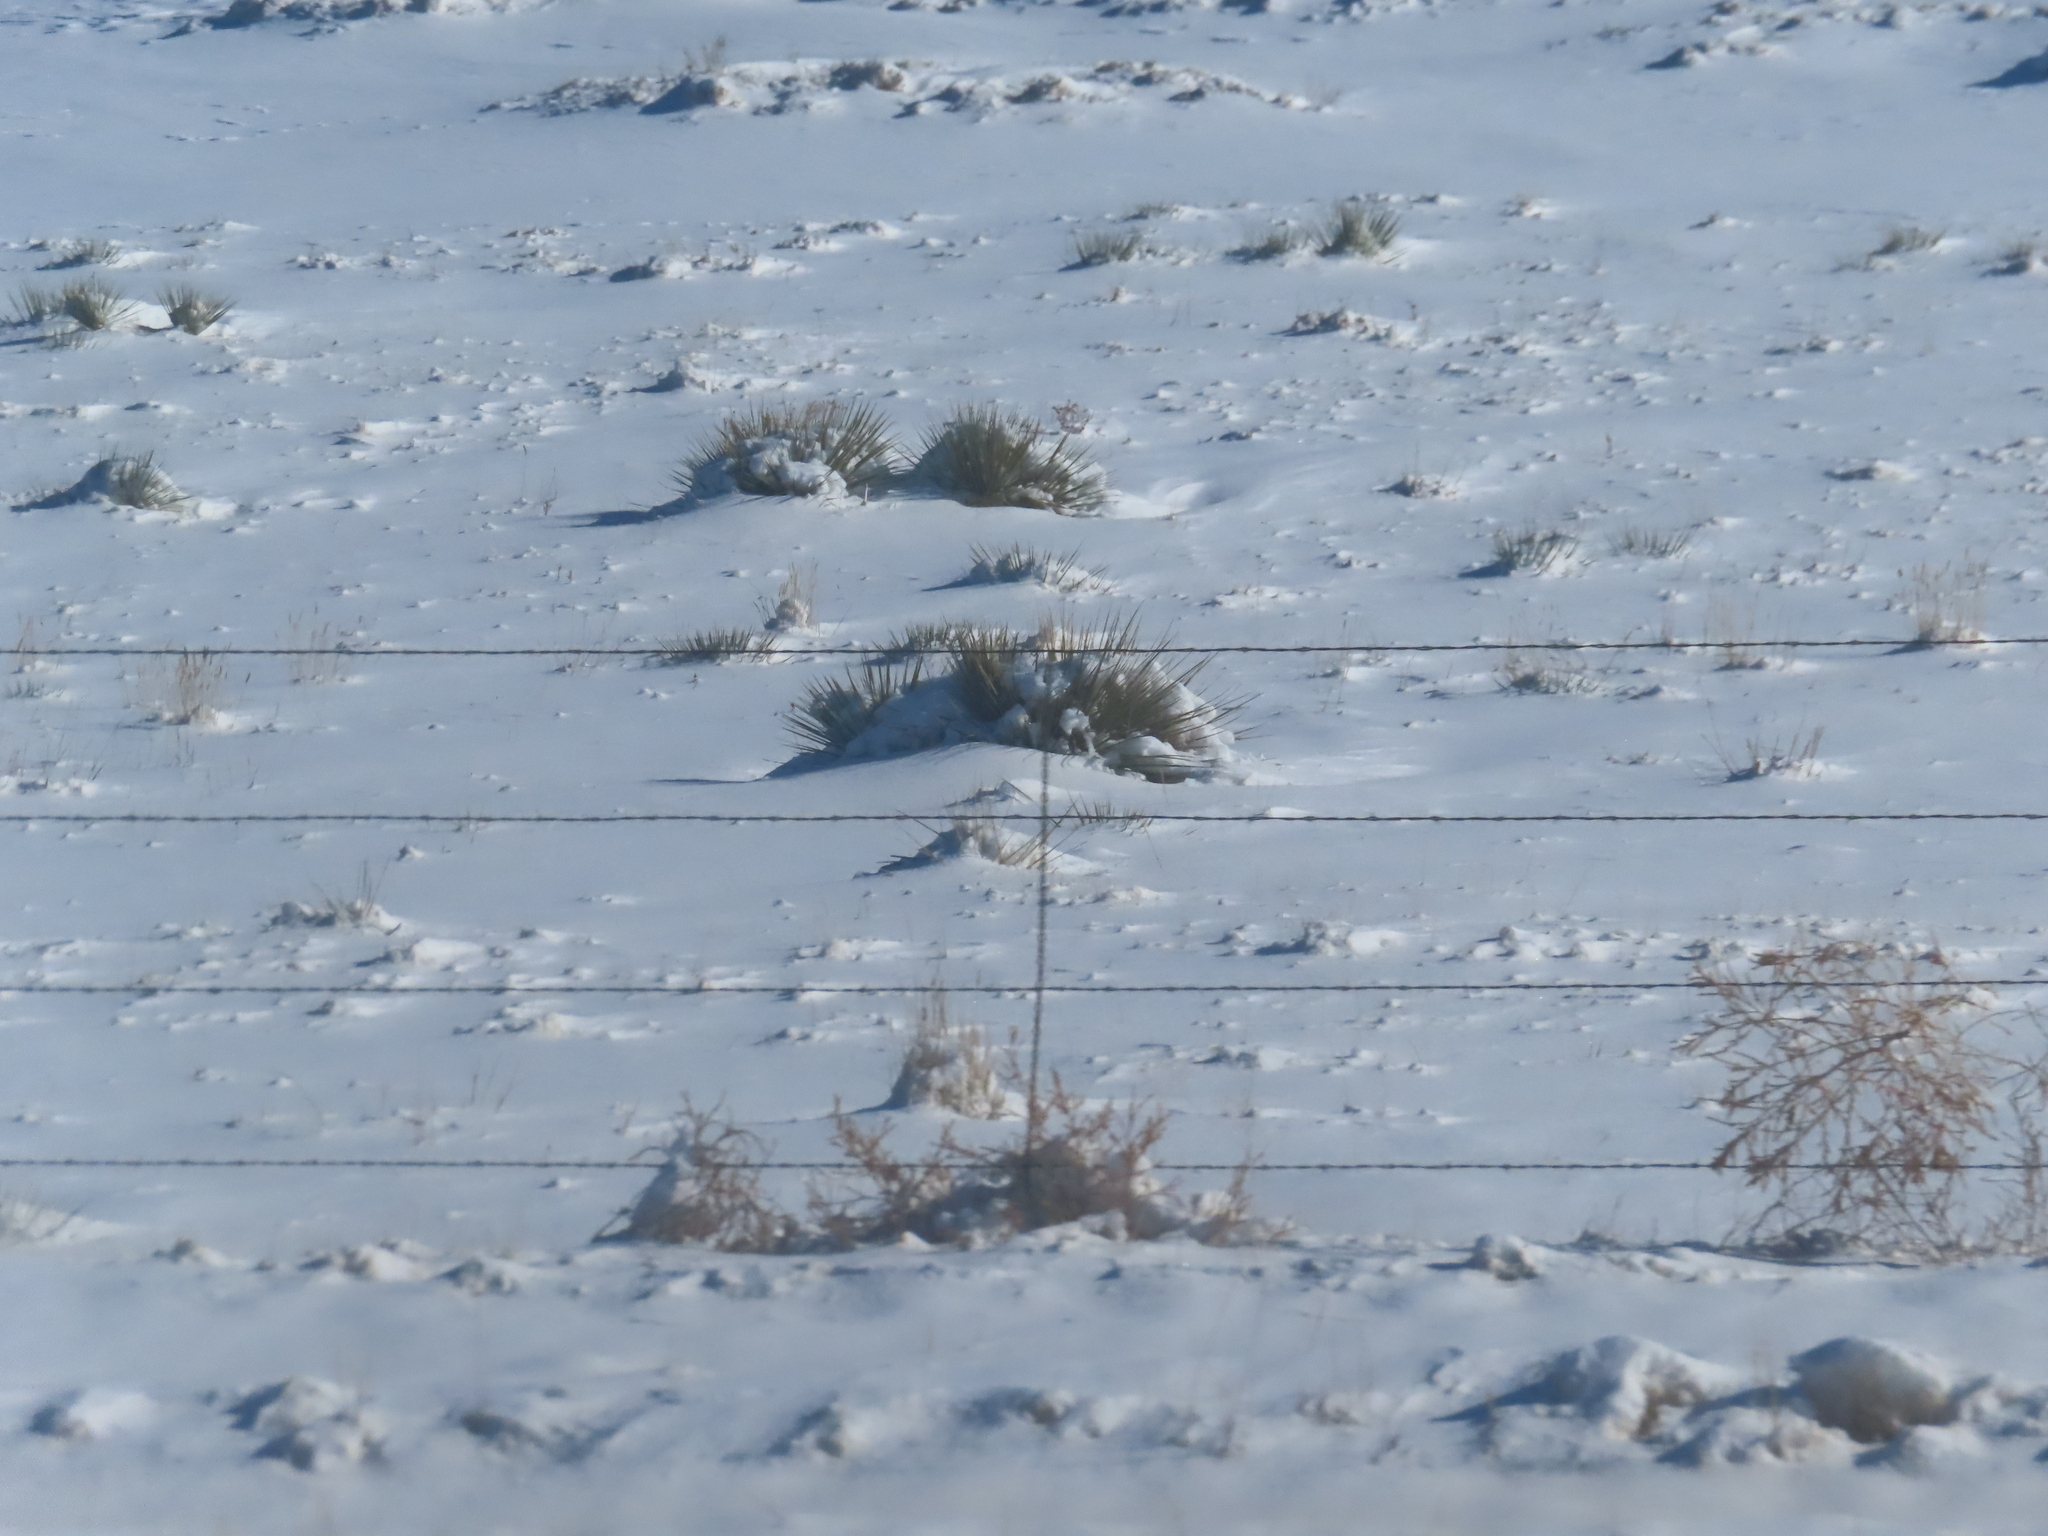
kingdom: Plantae
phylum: Tracheophyta
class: Liliopsida
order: Asparagales
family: Asparagaceae
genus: Yucca
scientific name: Yucca glauca
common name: Great plains yucca
